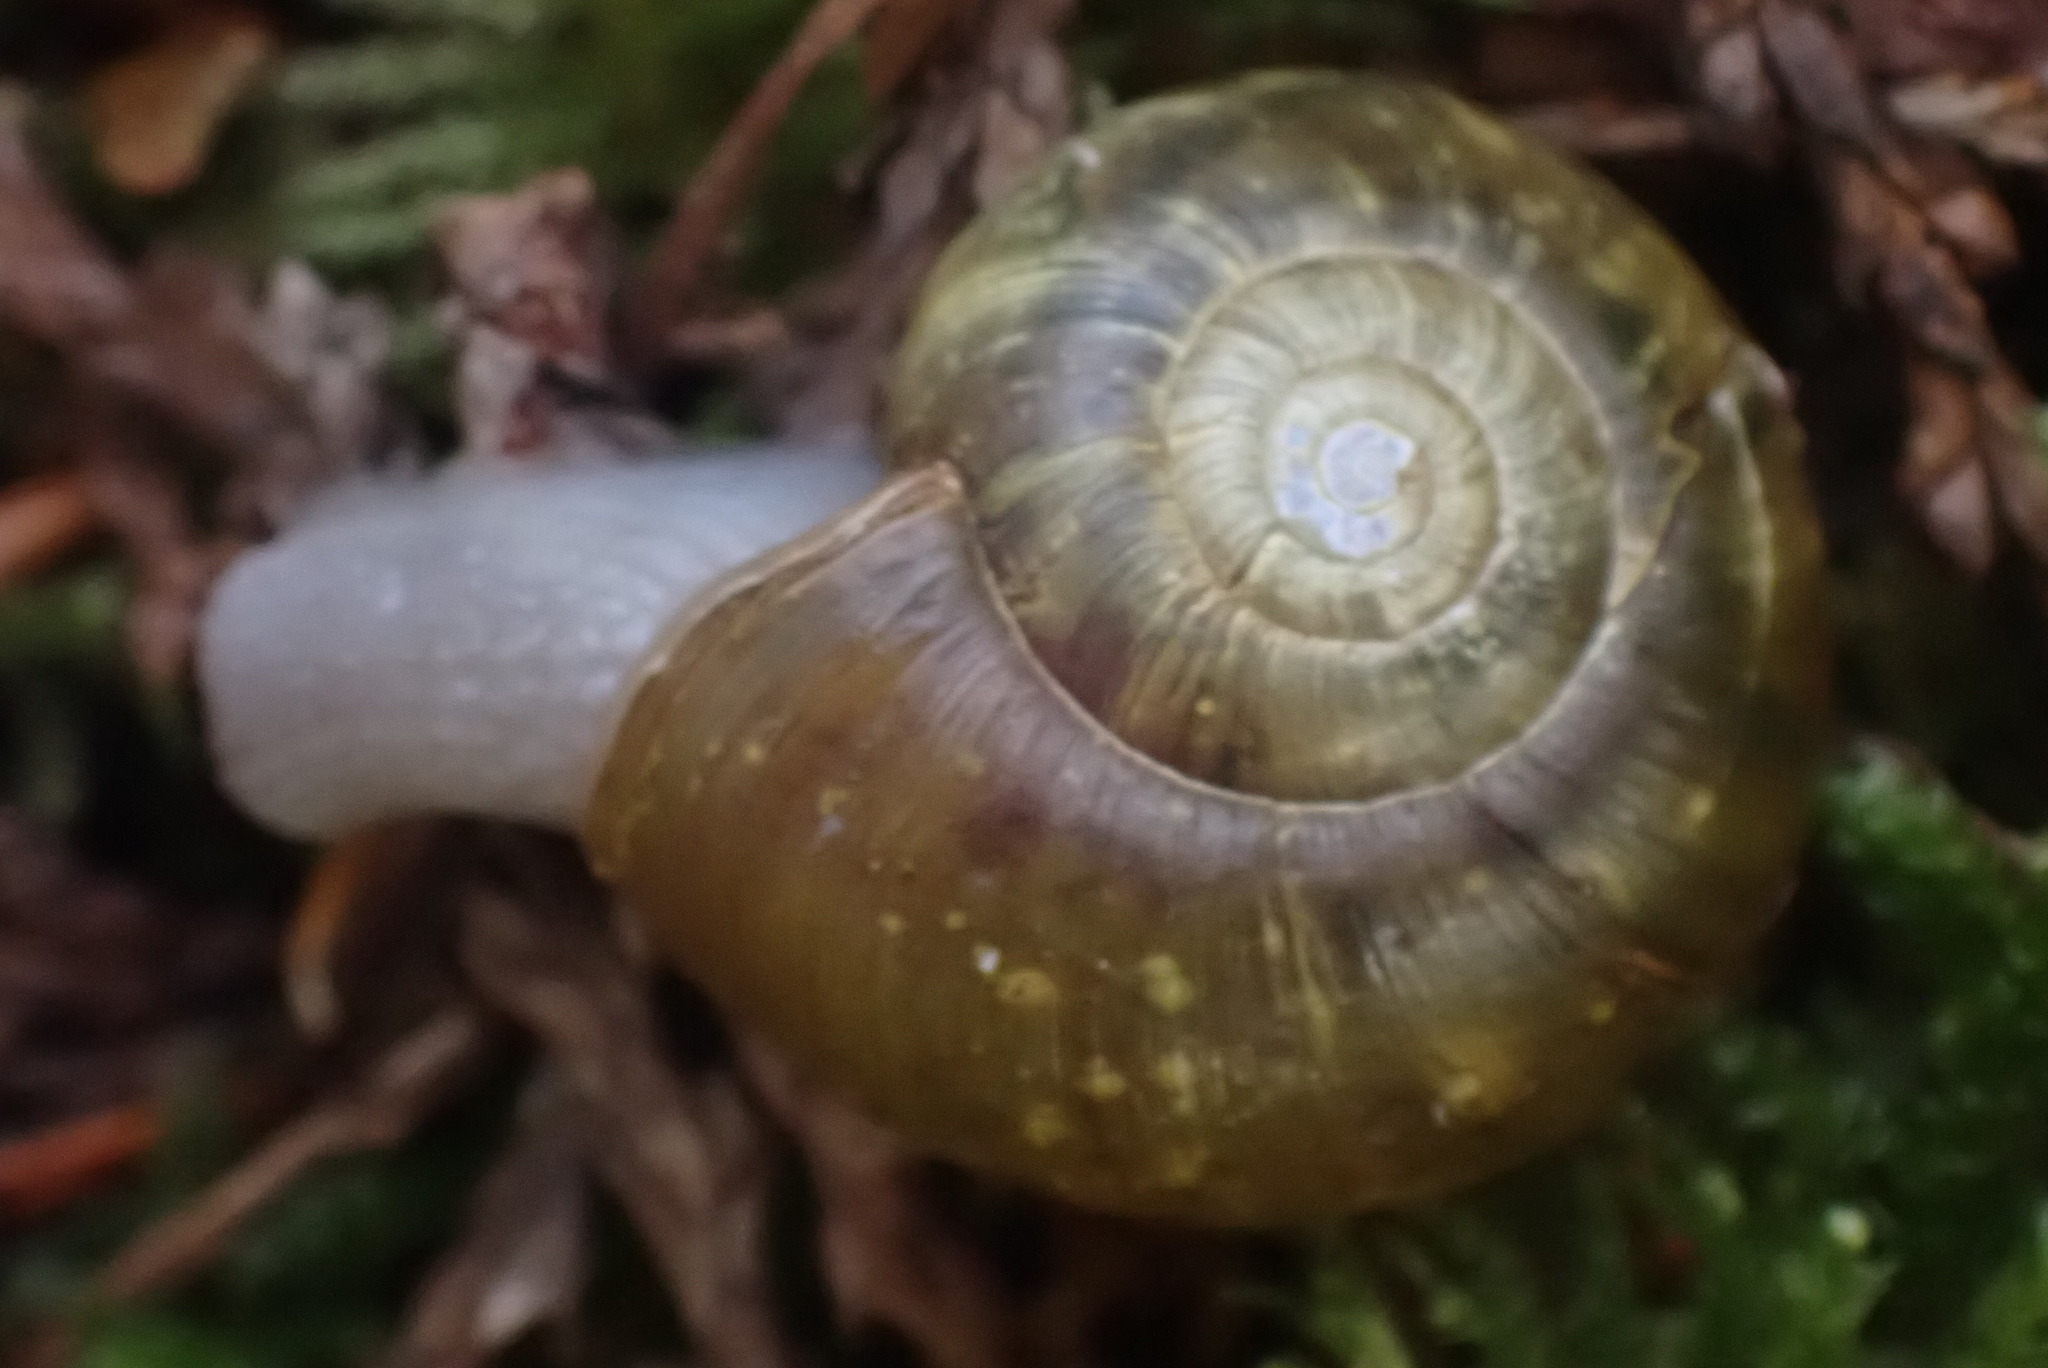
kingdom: Animalia
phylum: Mollusca
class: Gastropoda
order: Stylommatophora
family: Haplotrematidae
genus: Haplotrema
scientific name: Haplotrema vancouverense
